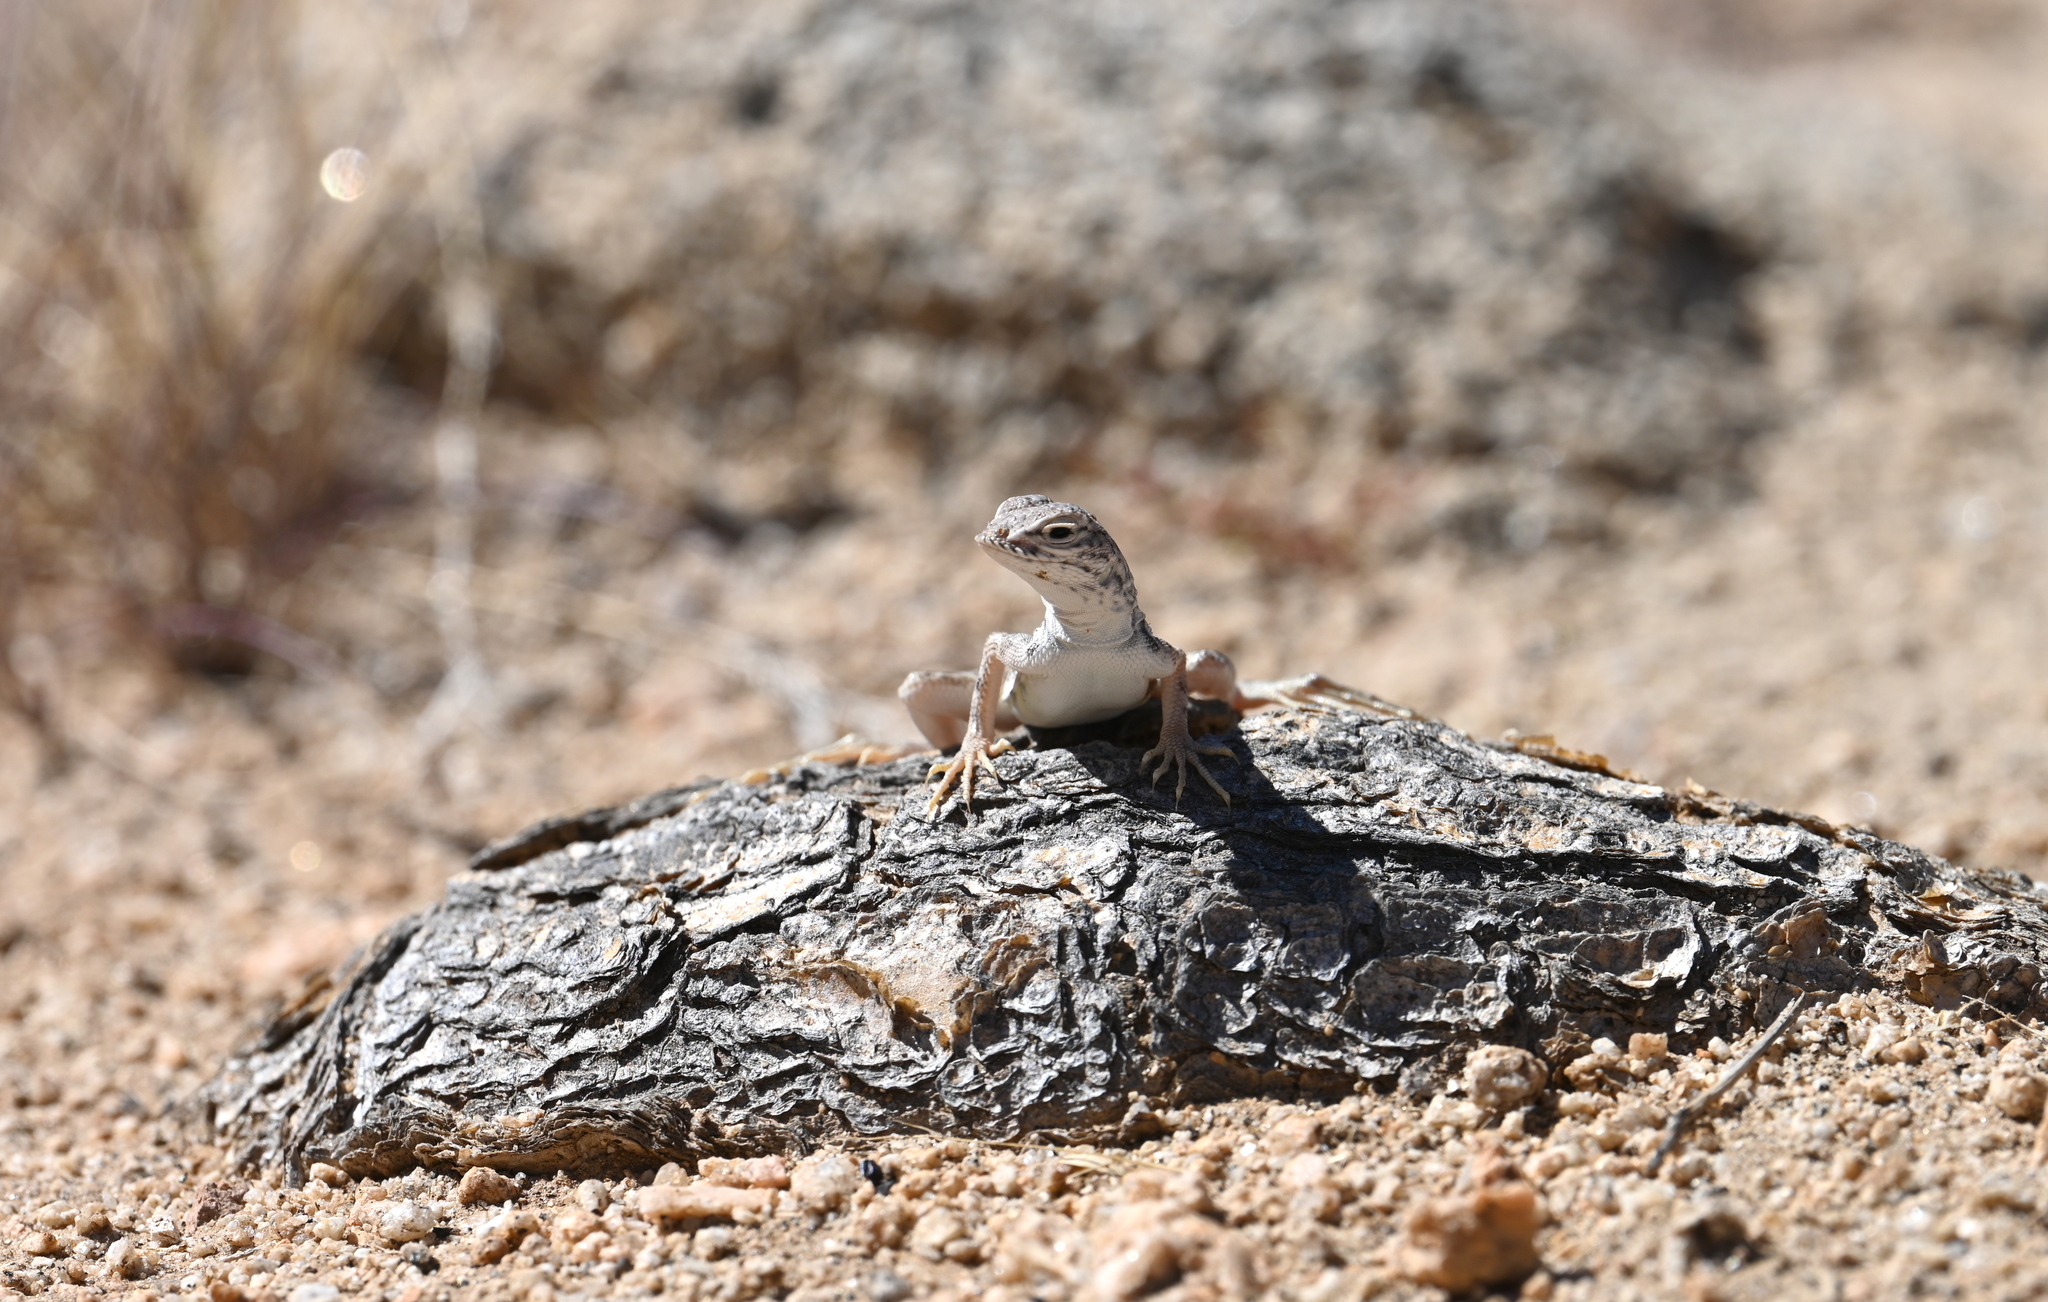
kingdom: Animalia
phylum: Chordata
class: Squamata
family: Phrynosomatidae
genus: Callisaurus
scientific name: Callisaurus draconoides
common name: Zebra-tailed lizard
